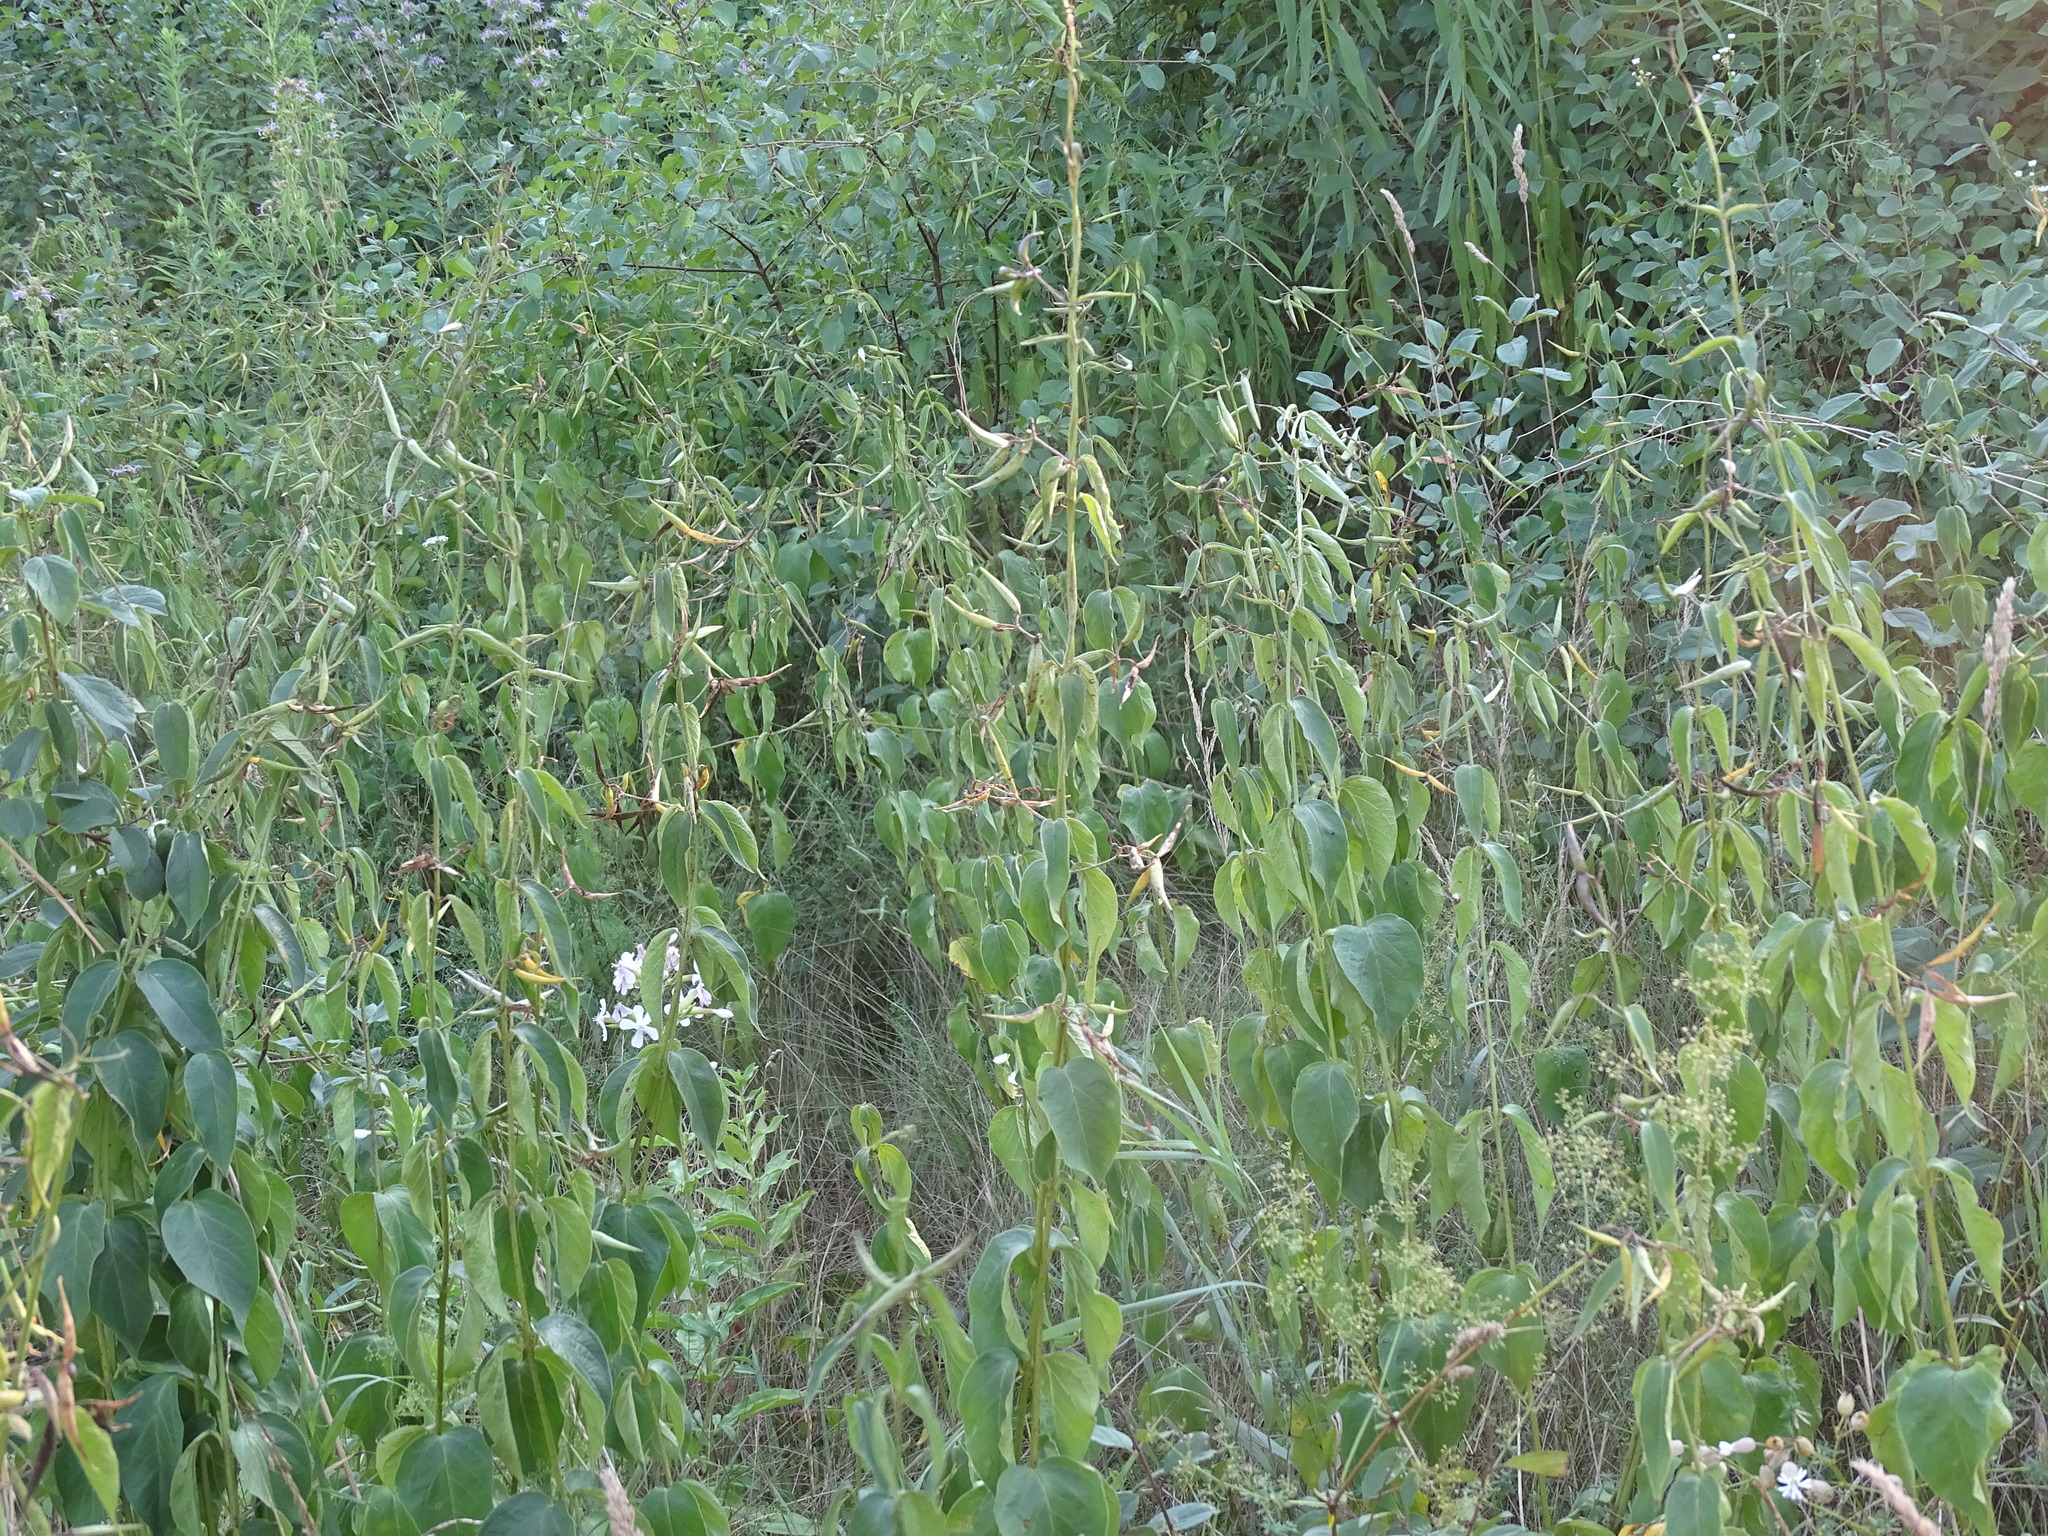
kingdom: Plantae
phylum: Tracheophyta
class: Magnoliopsida
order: Gentianales
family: Apocynaceae
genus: Vincetoxicum
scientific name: Vincetoxicum rossicum
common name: Dog-strangling vine
